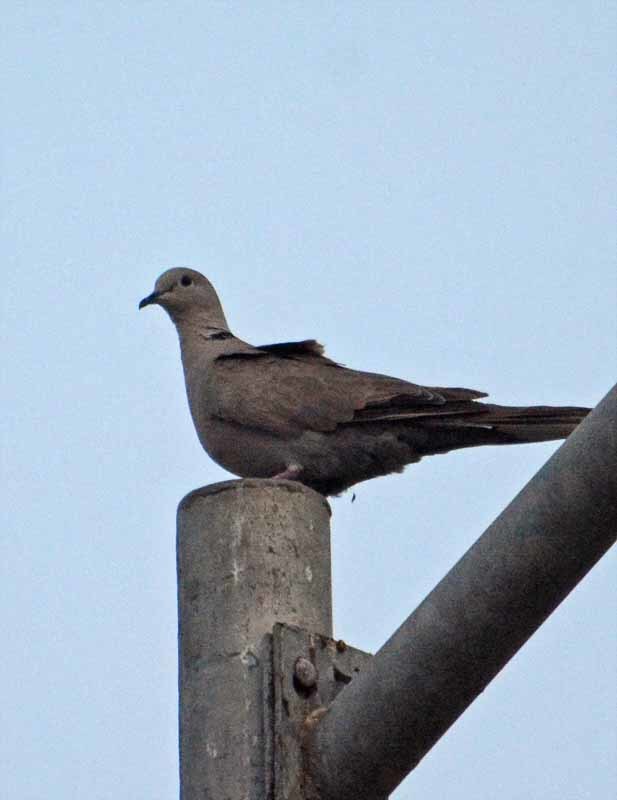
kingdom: Animalia
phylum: Chordata
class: Aves
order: Columbiformes
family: Columbidae
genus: Streptopelia
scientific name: Streptopelia decaocto
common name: Eurasian collared dove
